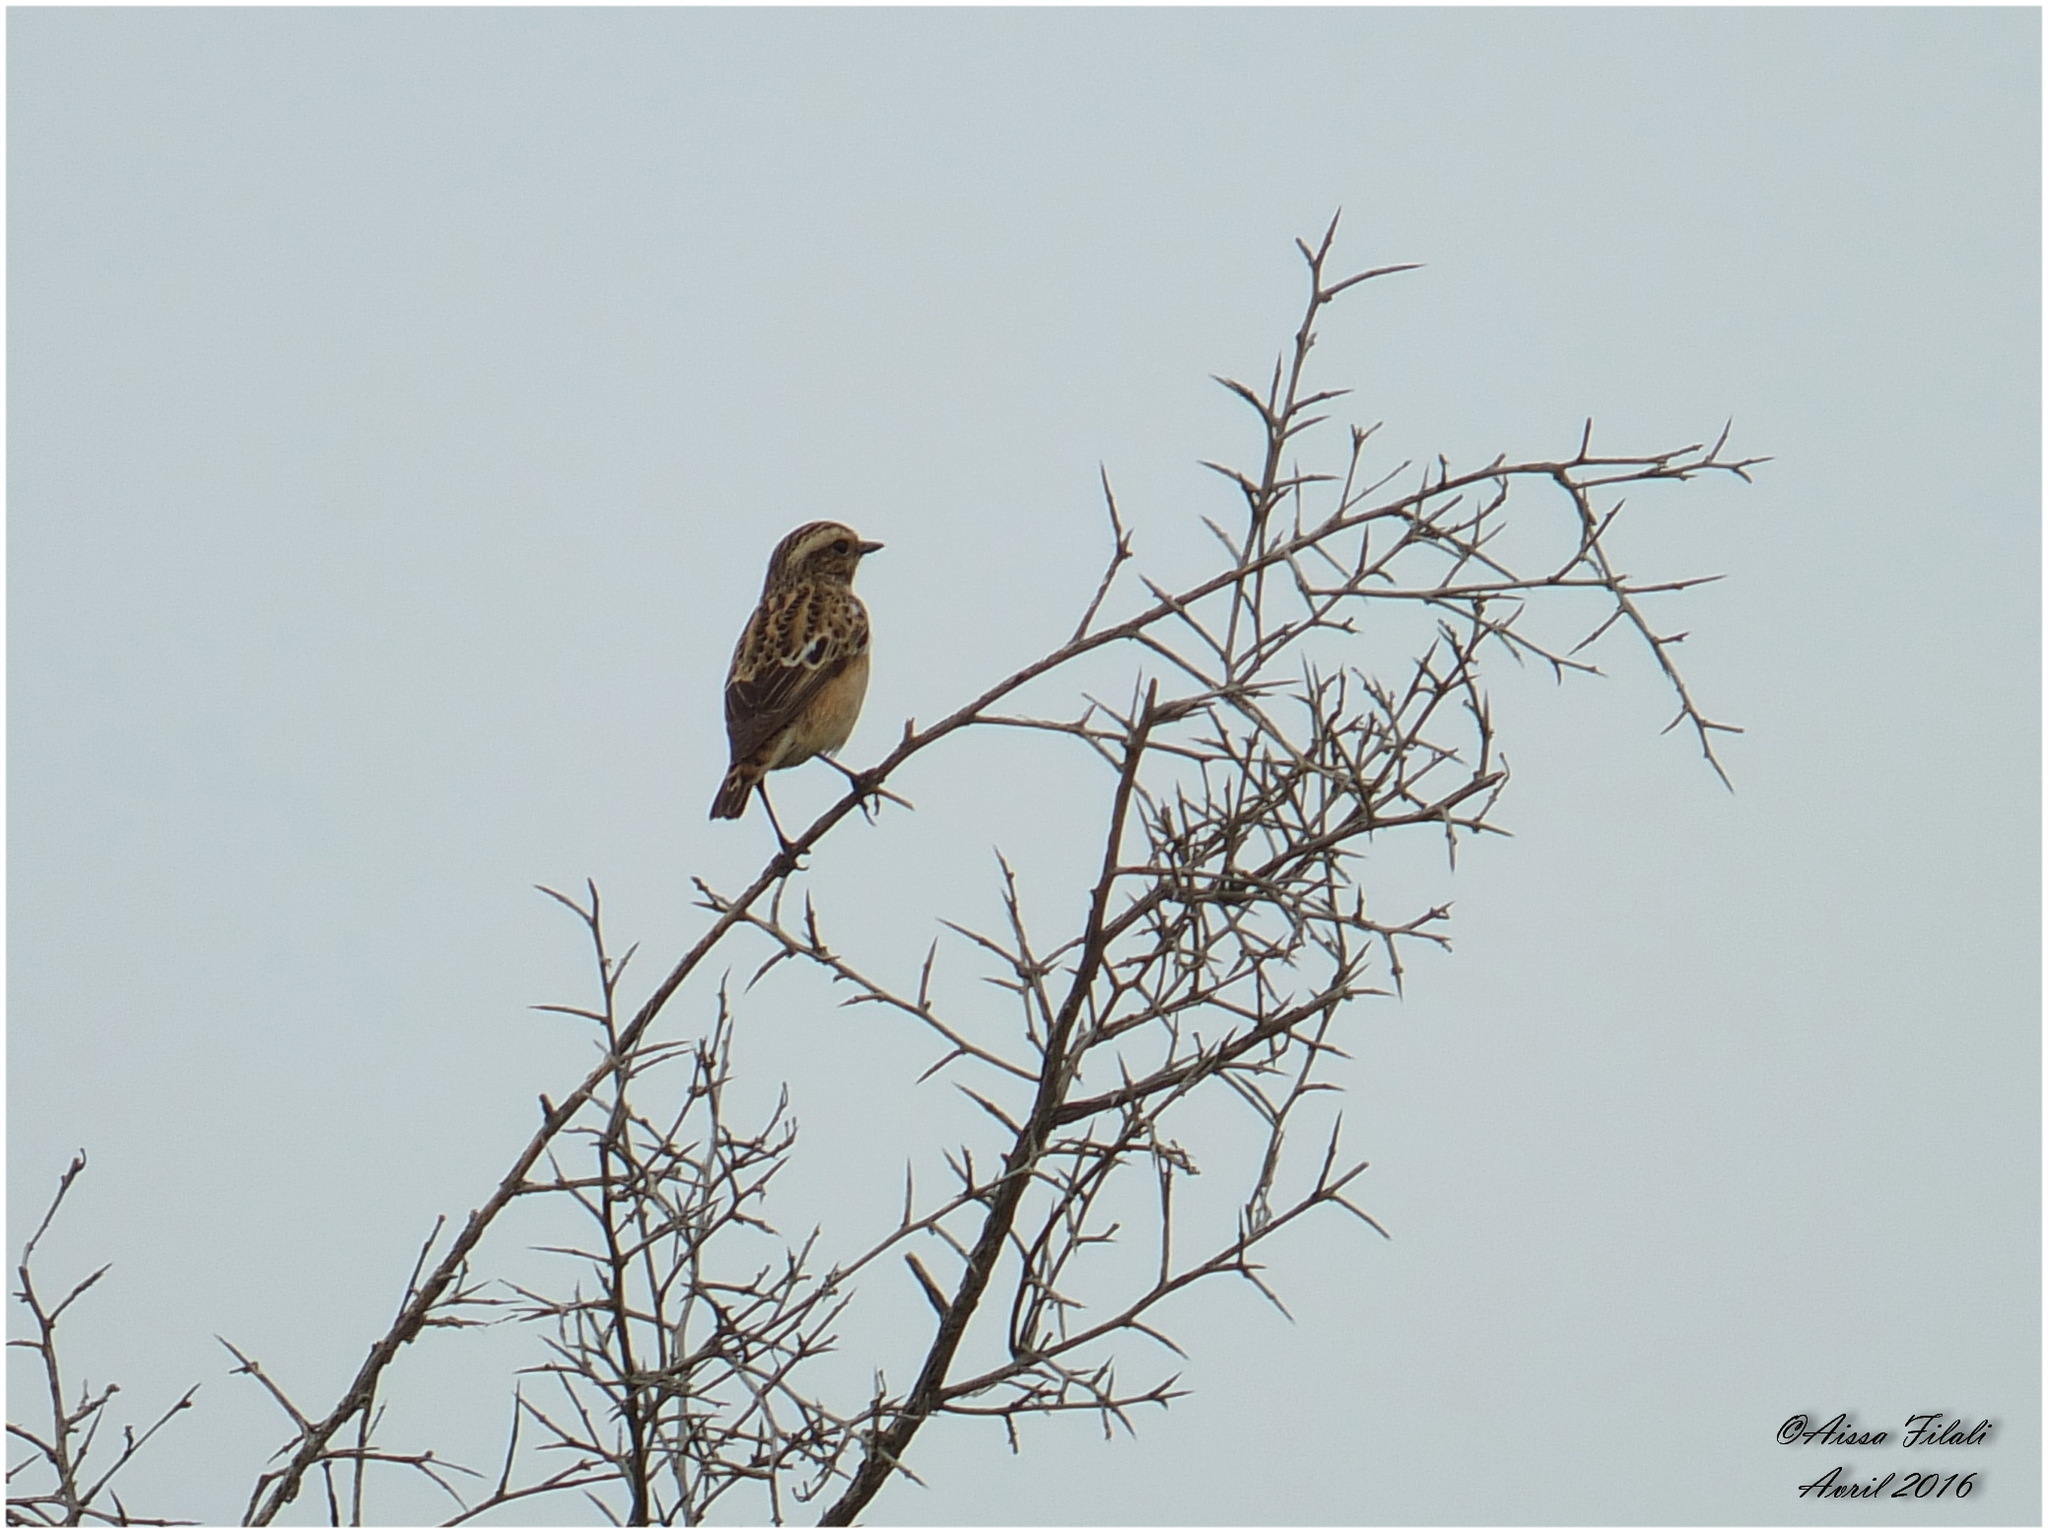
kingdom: Animalia
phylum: Chordata
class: Aves
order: Passeriformes
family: Muscicapidae
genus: Saxicola
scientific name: Saxicola rubetra
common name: Whinchat
